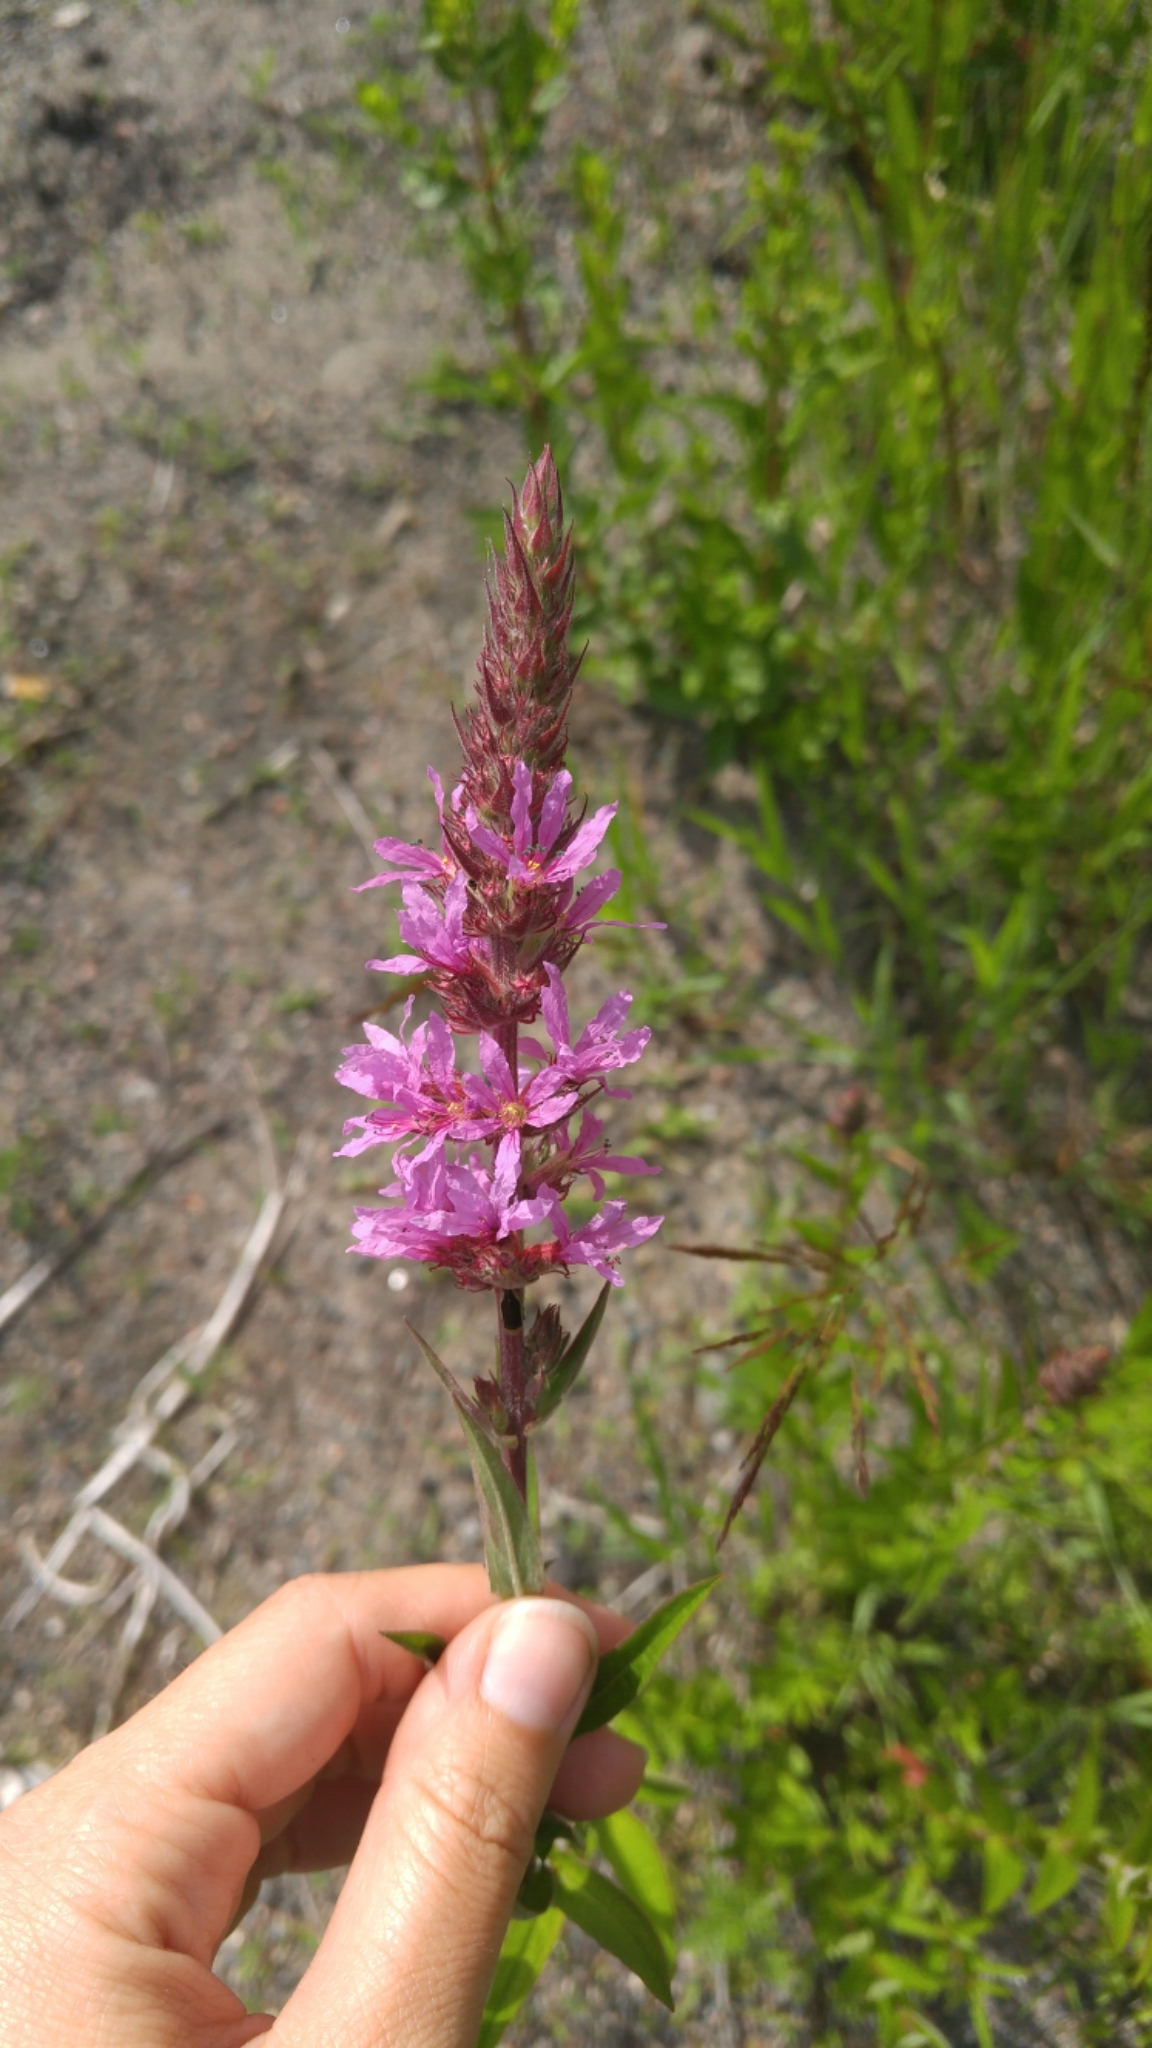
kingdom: Plantae
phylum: Tracheophyta
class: Magnoliopsida
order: Myrtales
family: Lythraceae
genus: Lythrum
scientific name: Lythrum salicaria
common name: Purple loosestrife
